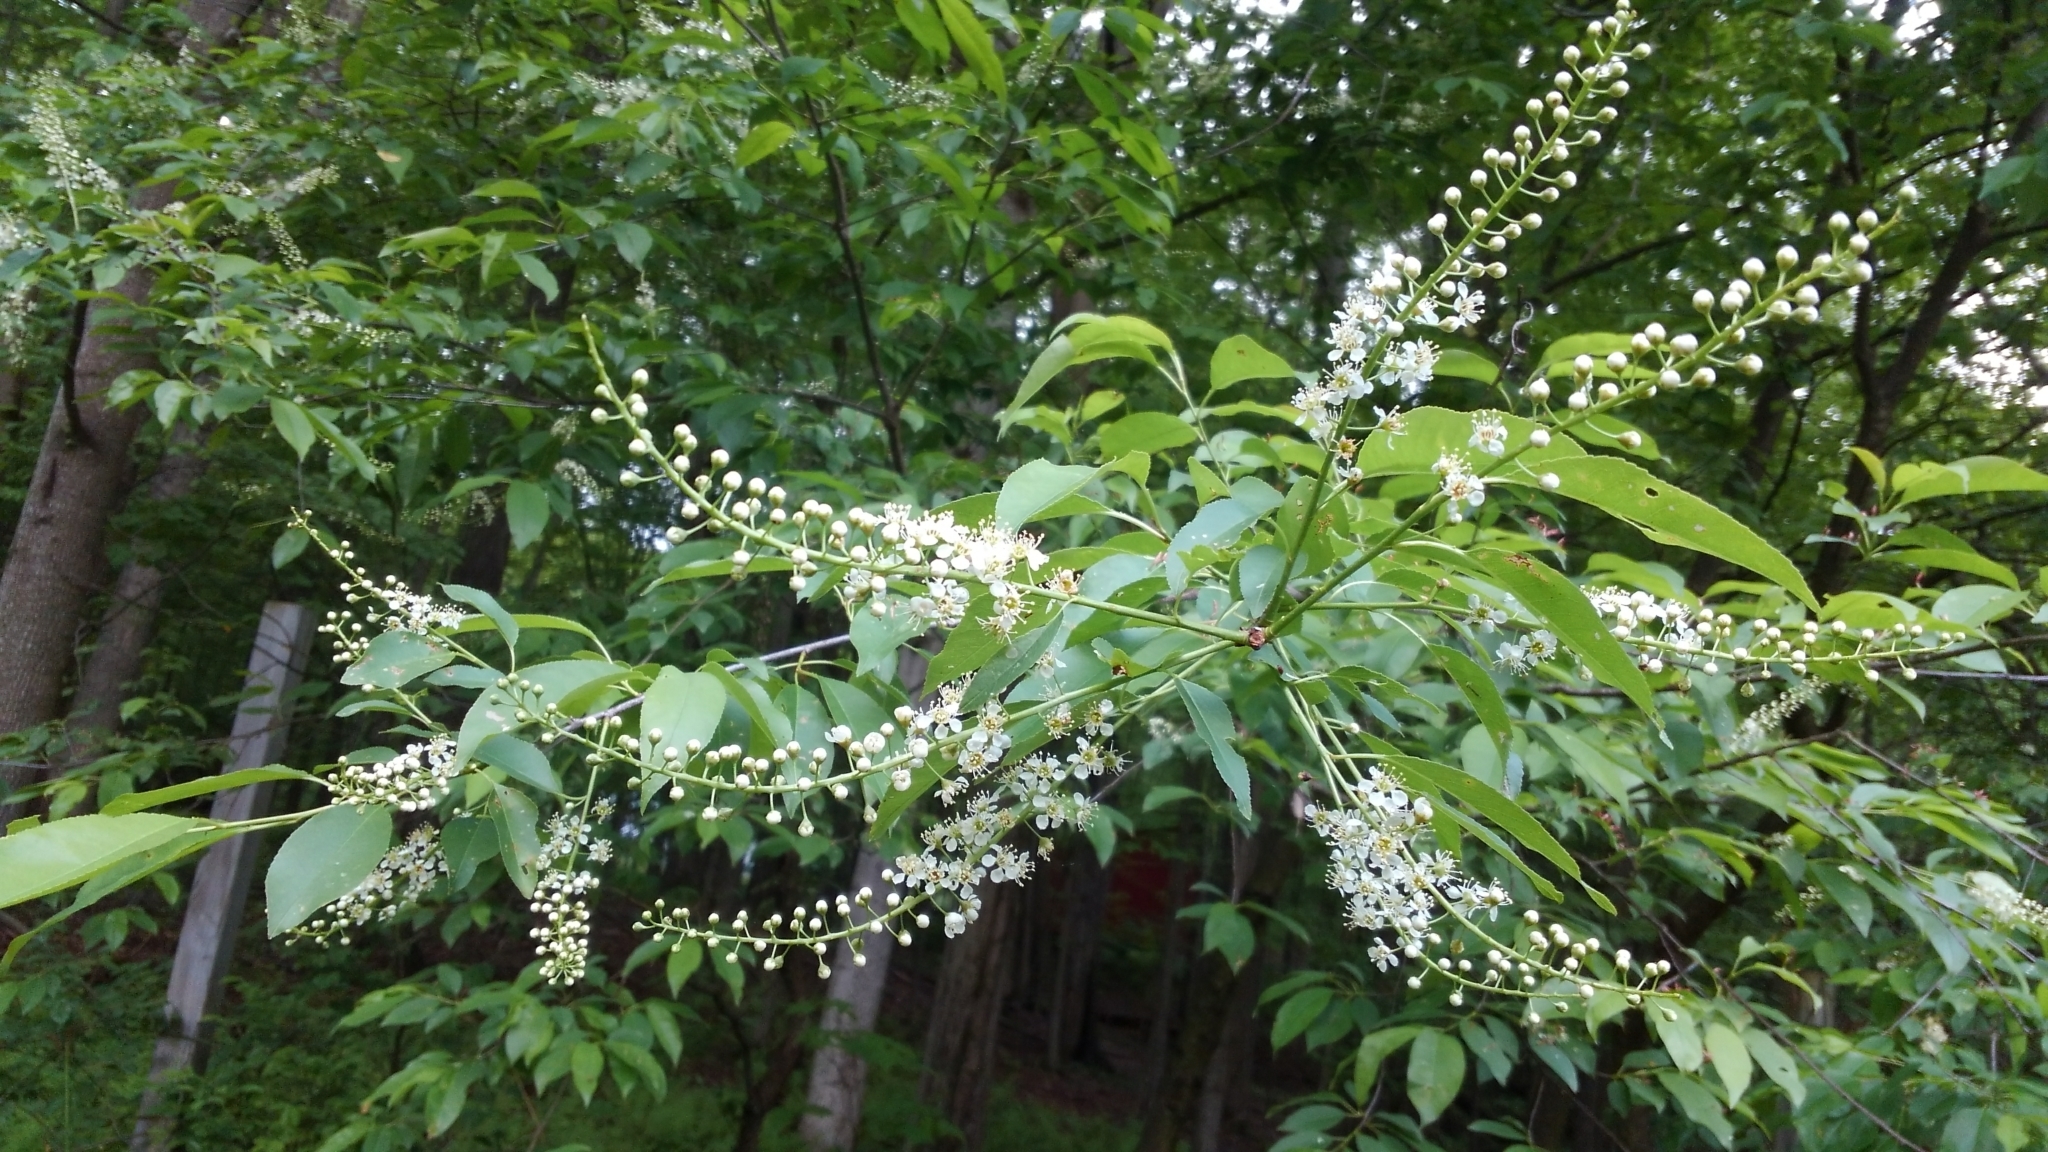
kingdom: Plantae
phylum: Tracheophyta
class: Magnoliopsida
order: Rosales
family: Rosaceae
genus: Prunus
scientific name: Prunus serotina
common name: Black cherry
